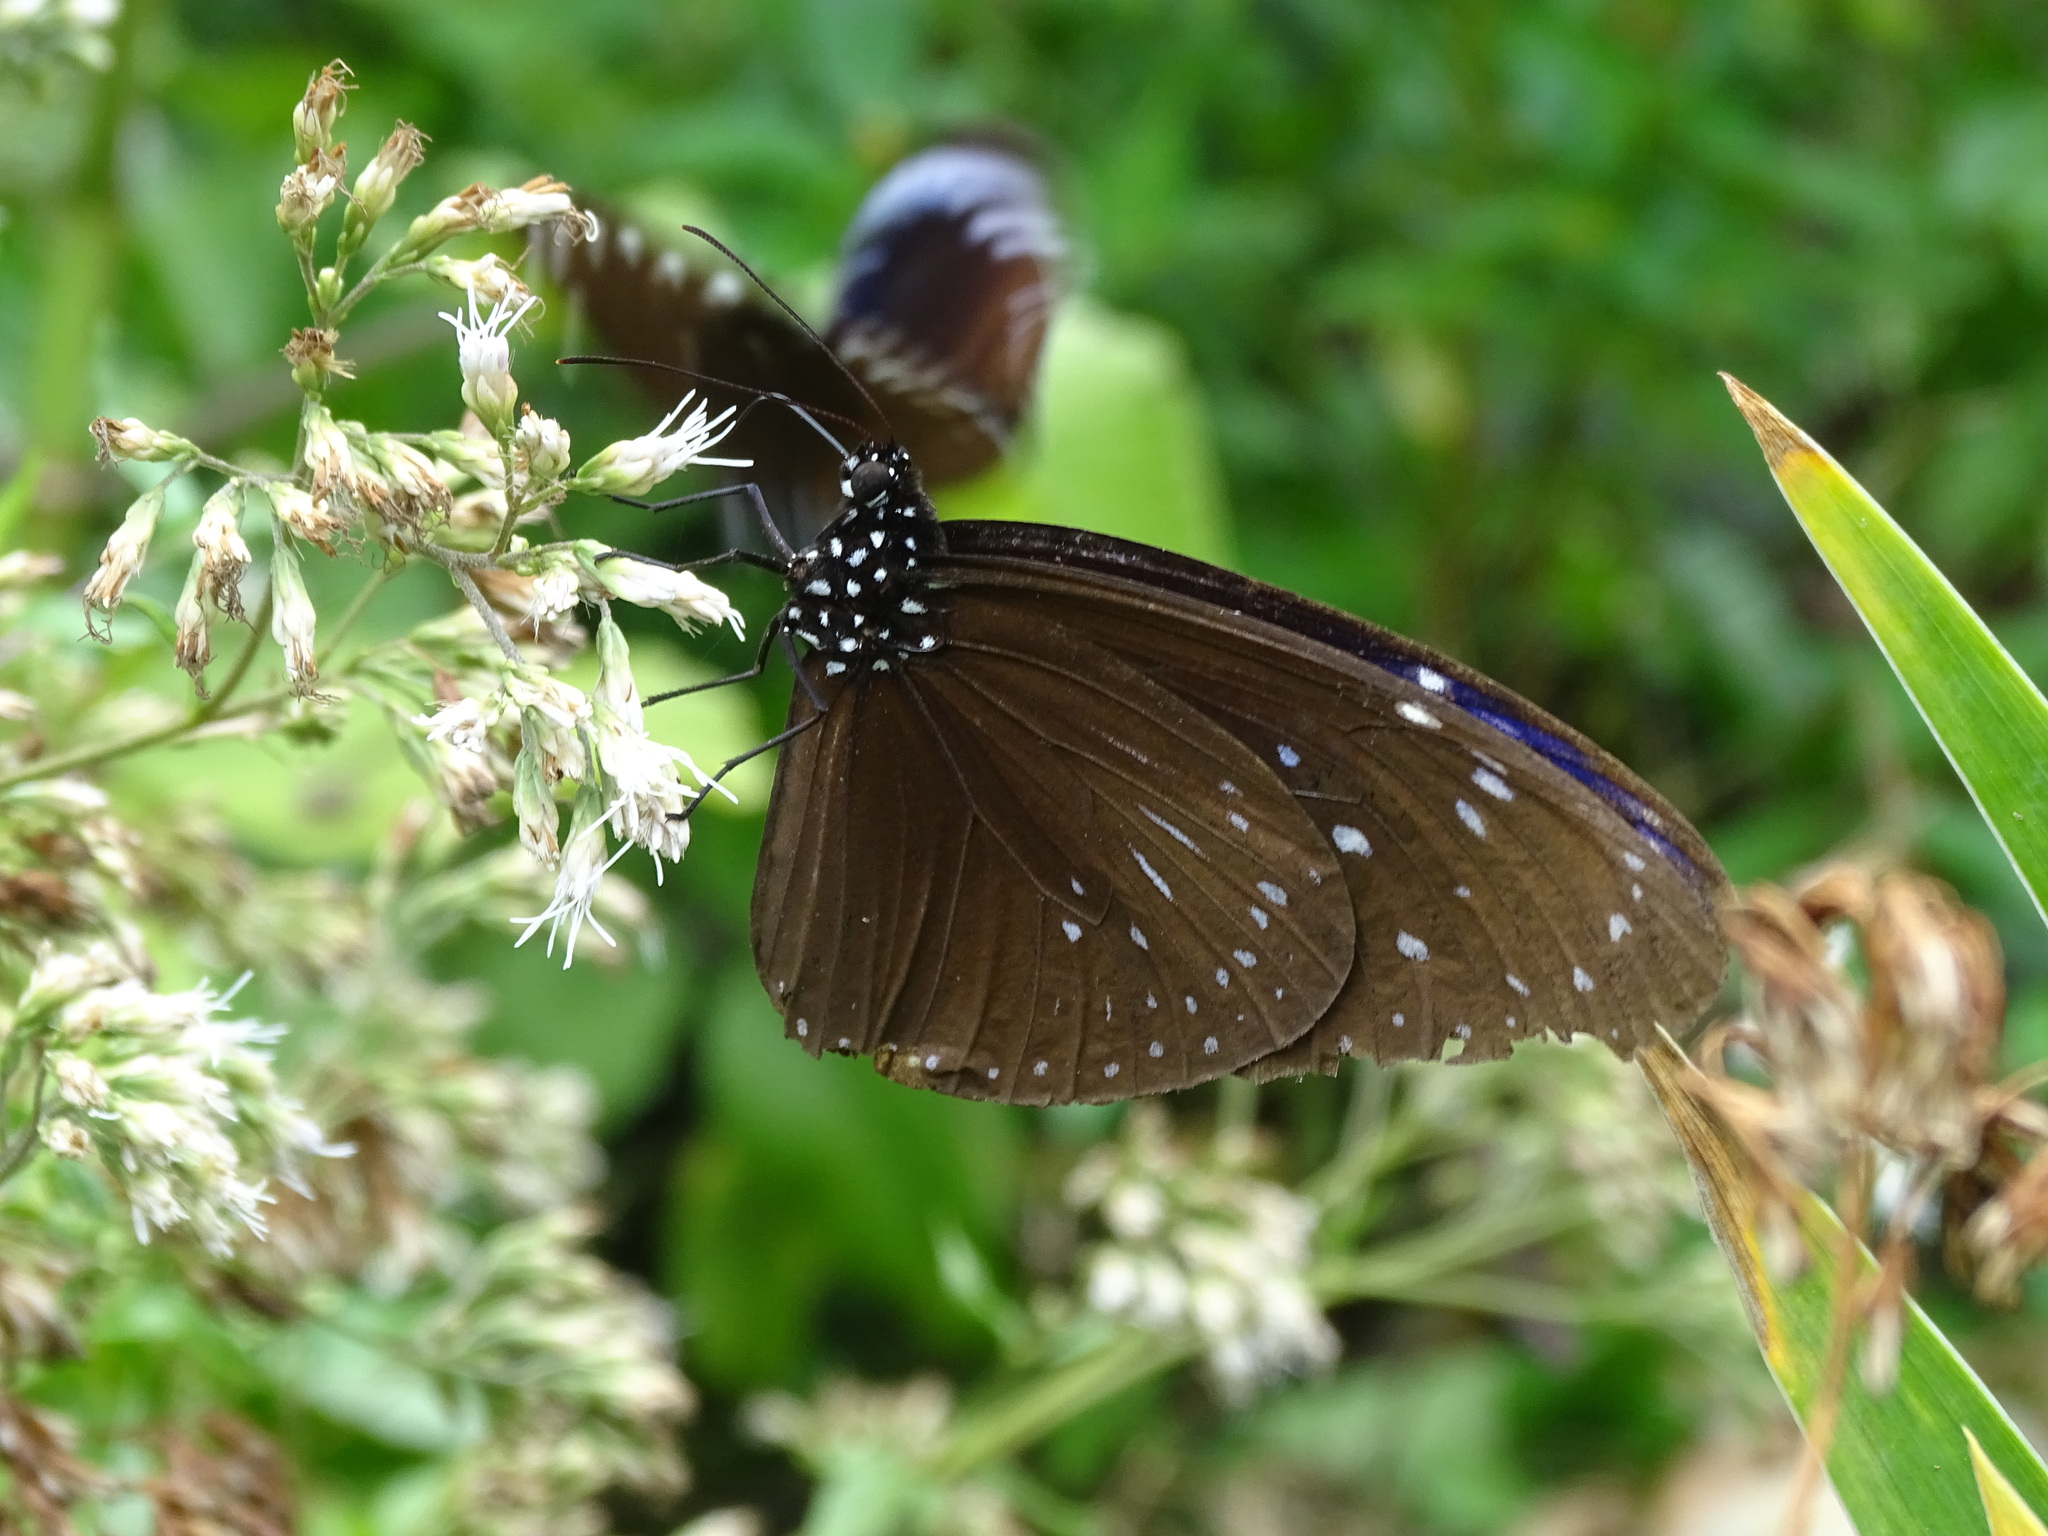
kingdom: Animalia
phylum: Arthropoda
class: Insecta
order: Lepidoptera
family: Nymphalidae
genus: Euploea
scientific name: Euploea mulciber
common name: Striped blue crow butterfly
